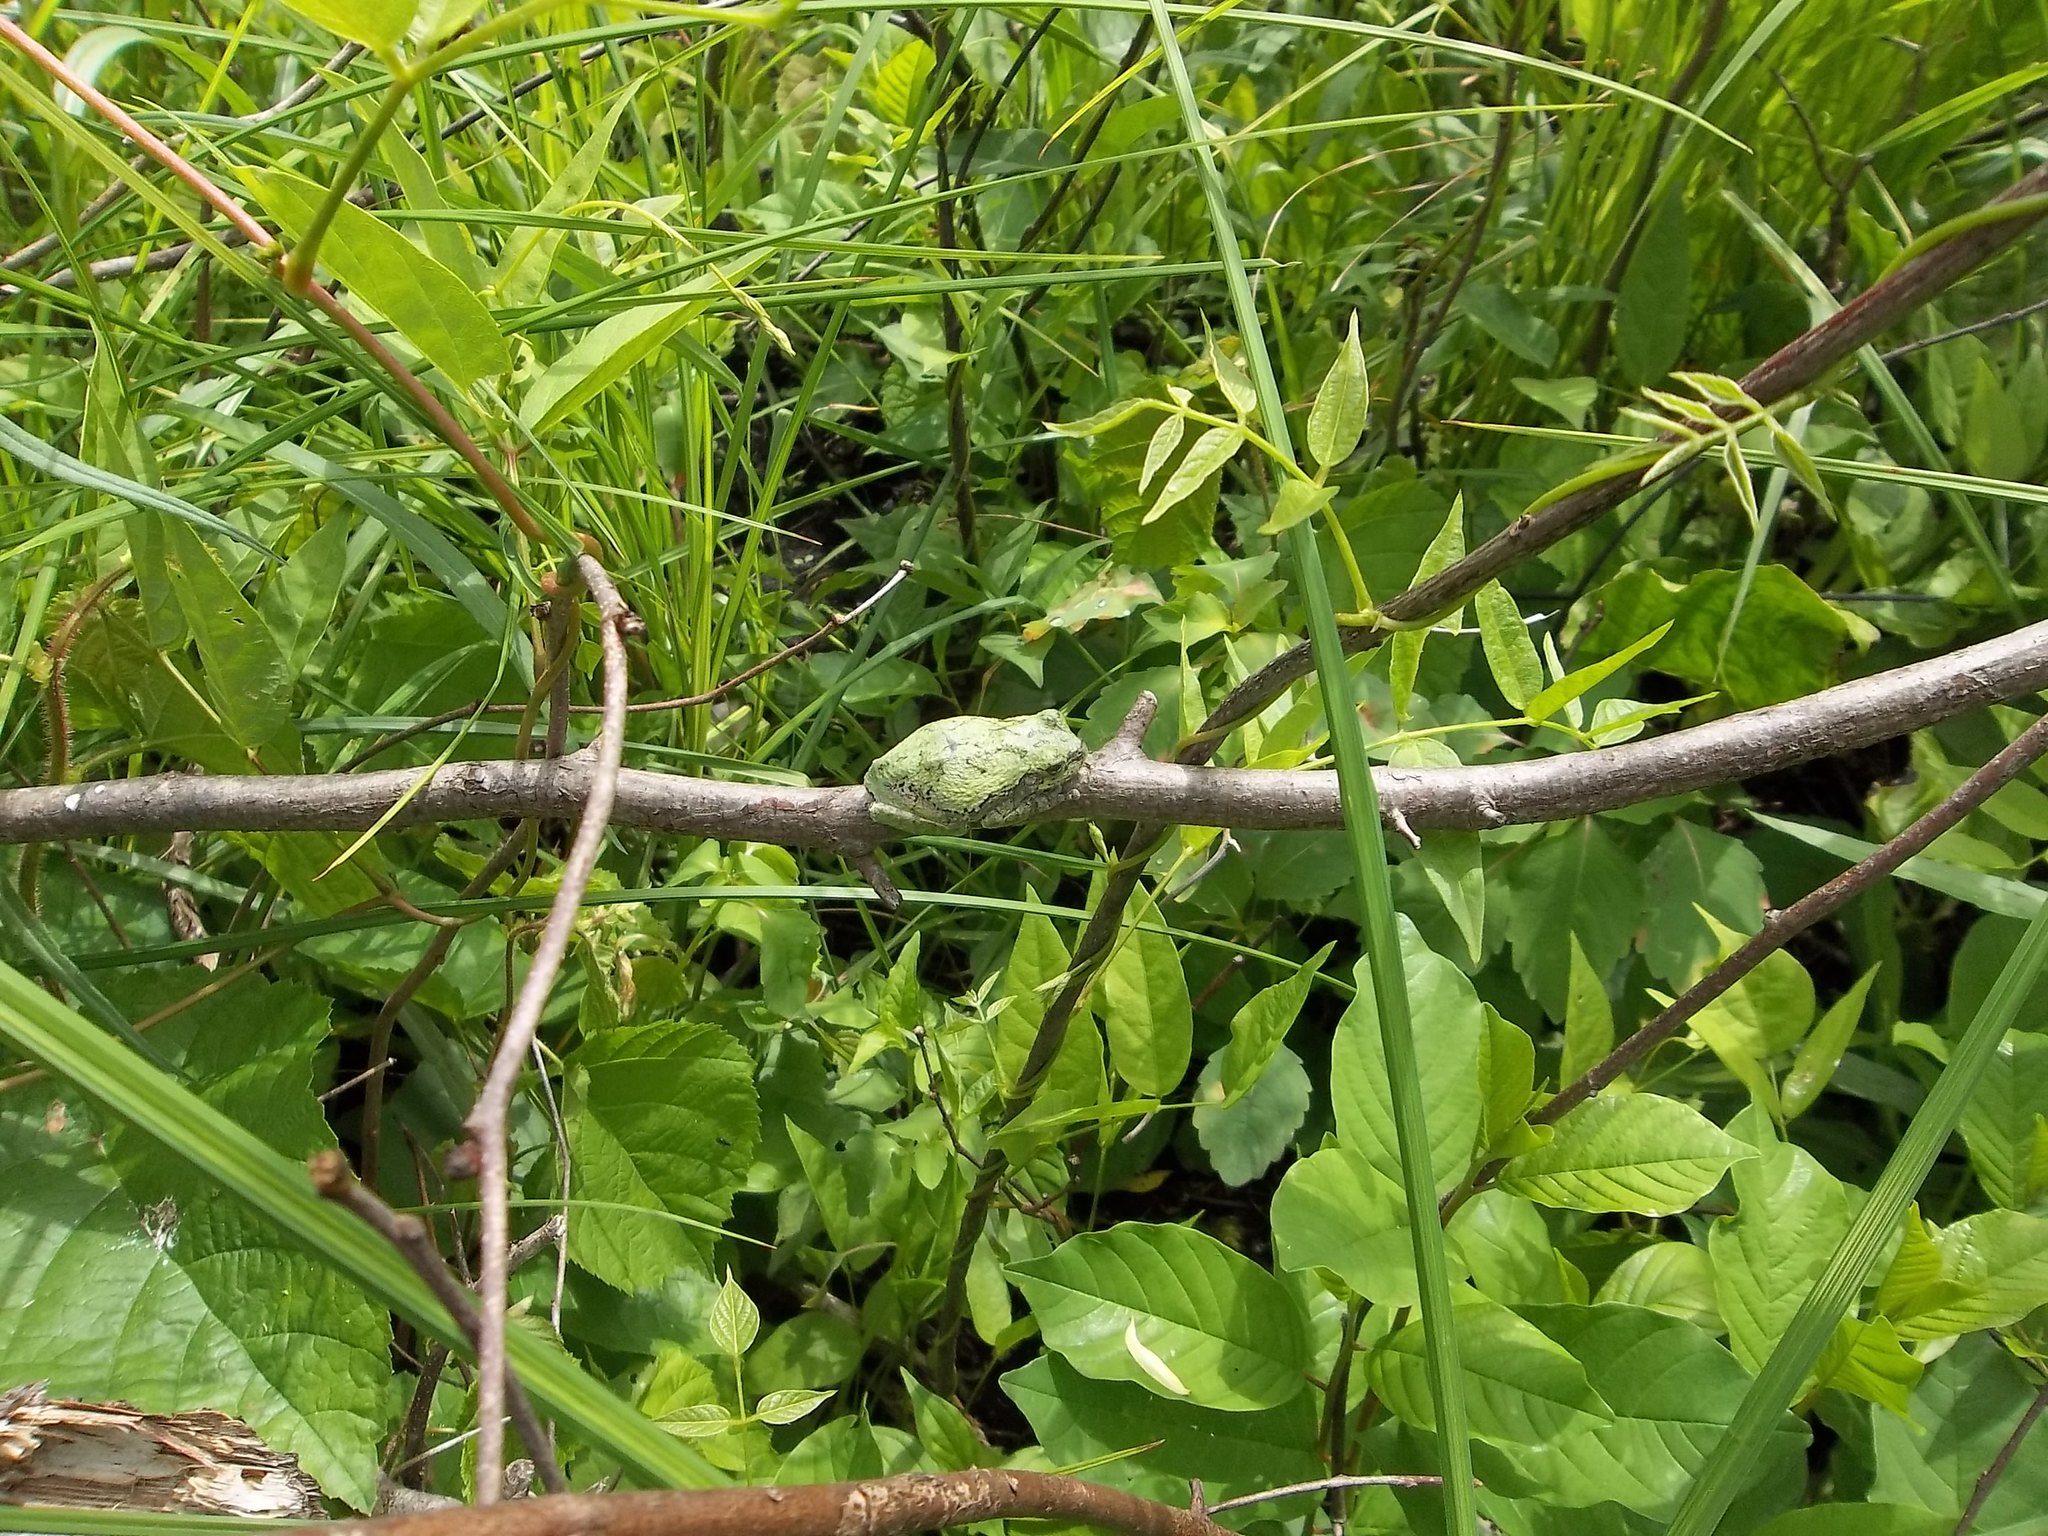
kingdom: Animalia
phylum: Chordata
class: Amphibia
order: Anura
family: Hylidae
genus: Hyla
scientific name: Hyla
